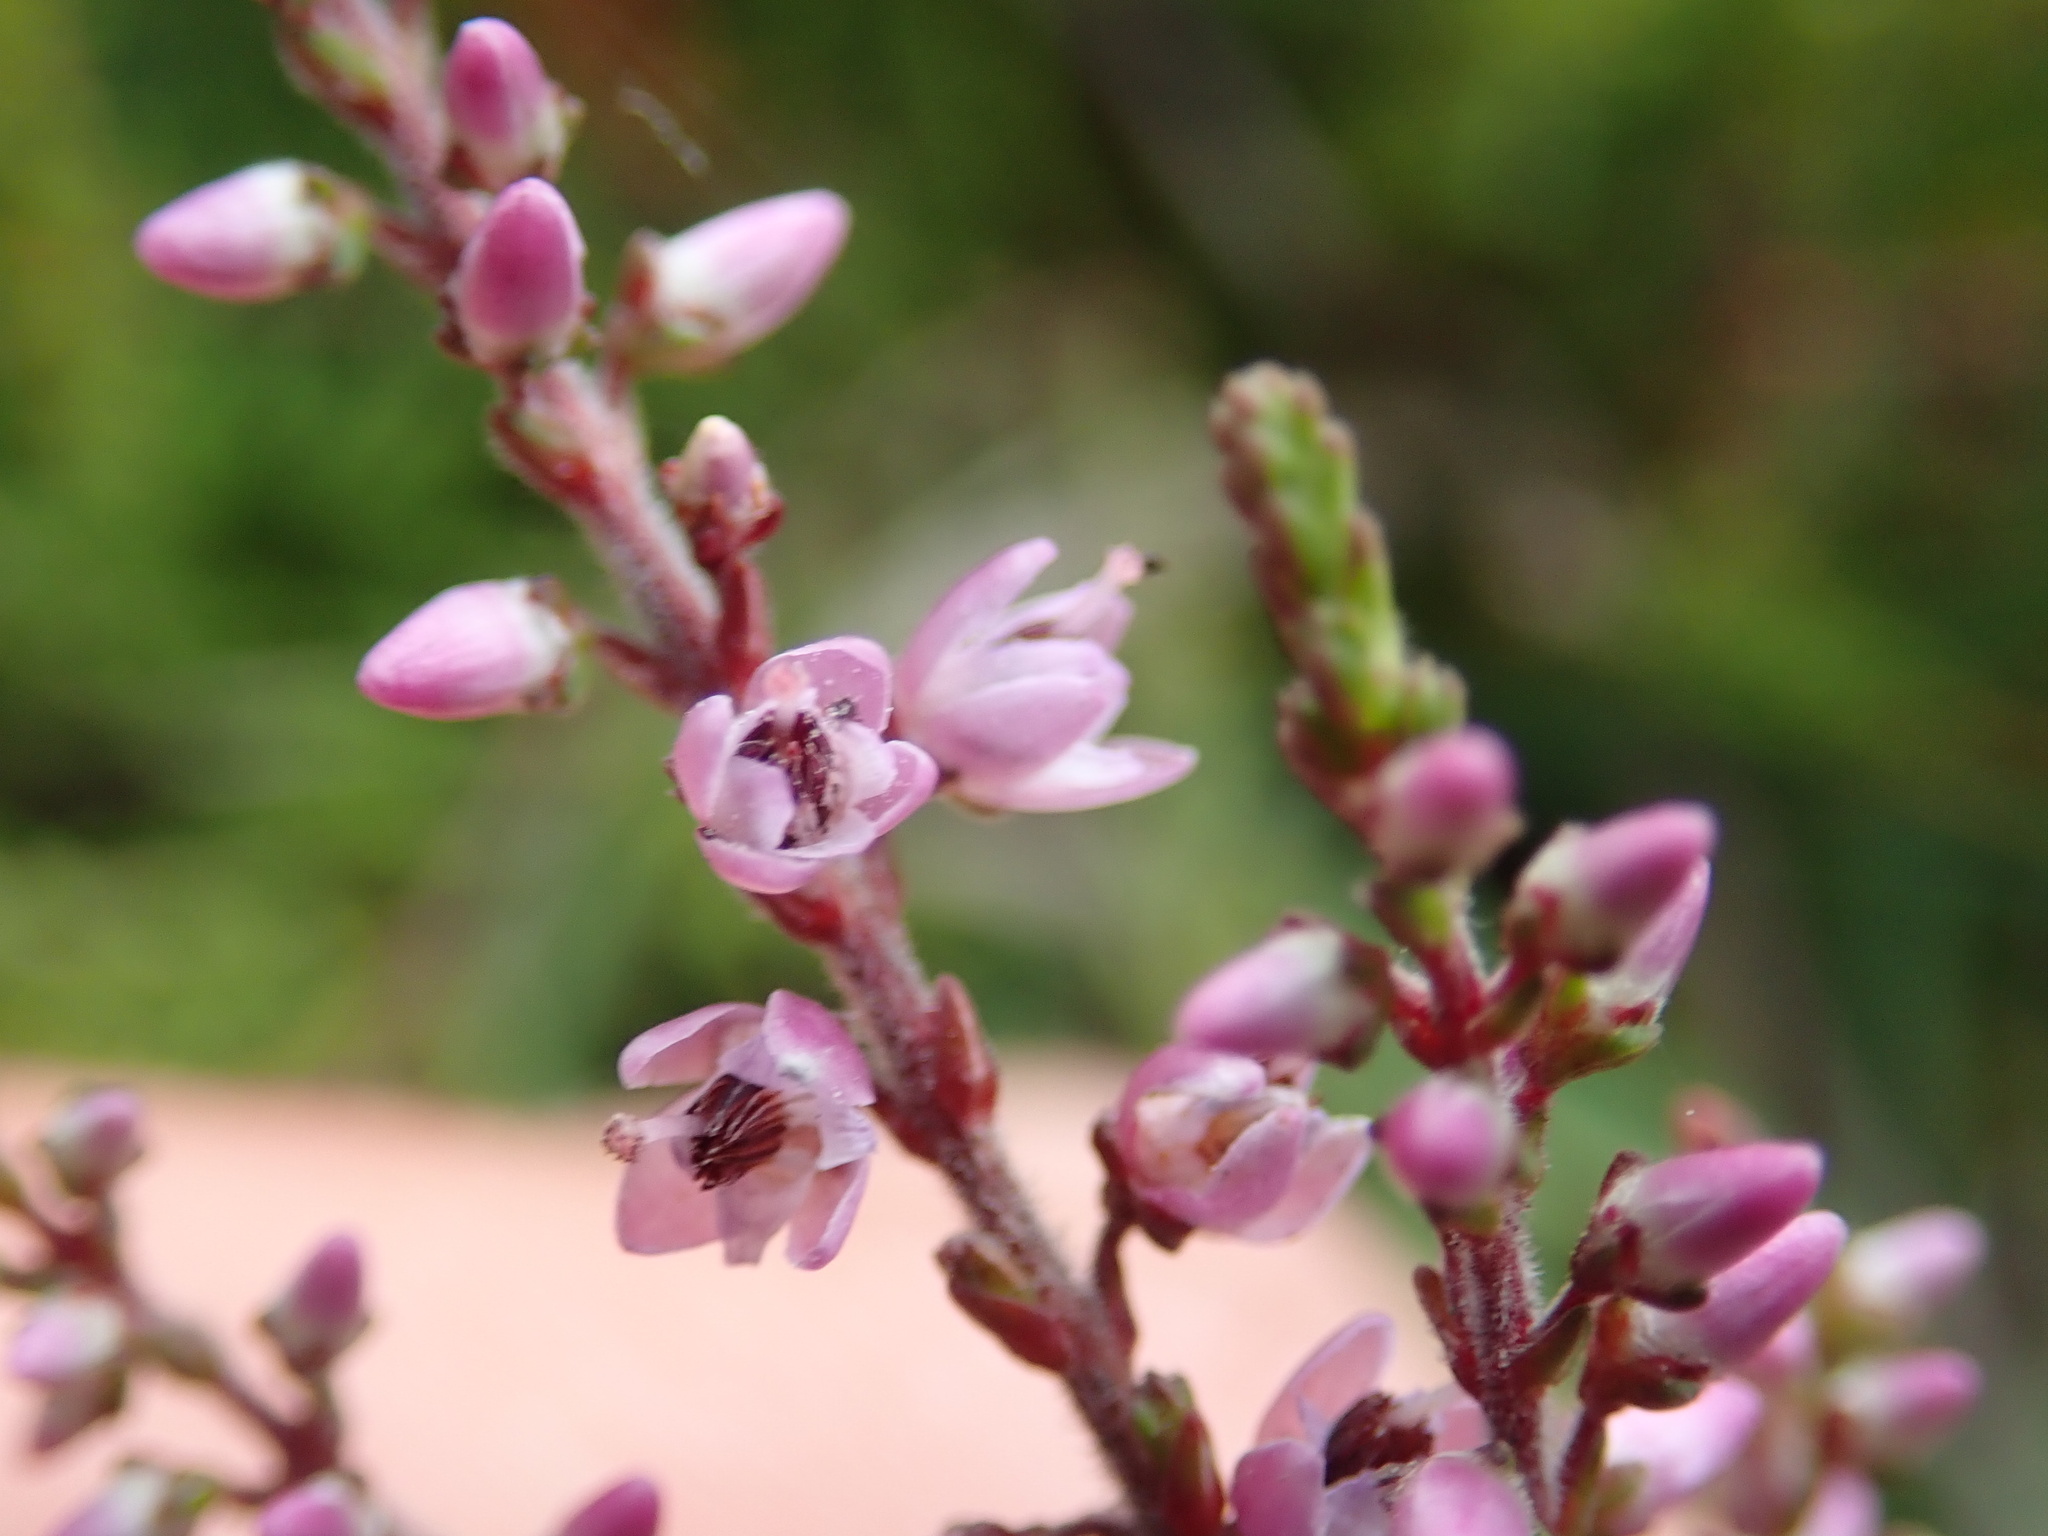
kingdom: Plantae
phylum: Tracheophyta
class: Magnoliopsida
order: Ericales
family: Ericaceae
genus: Calluna
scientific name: Calluna vulgaris
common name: Heather
